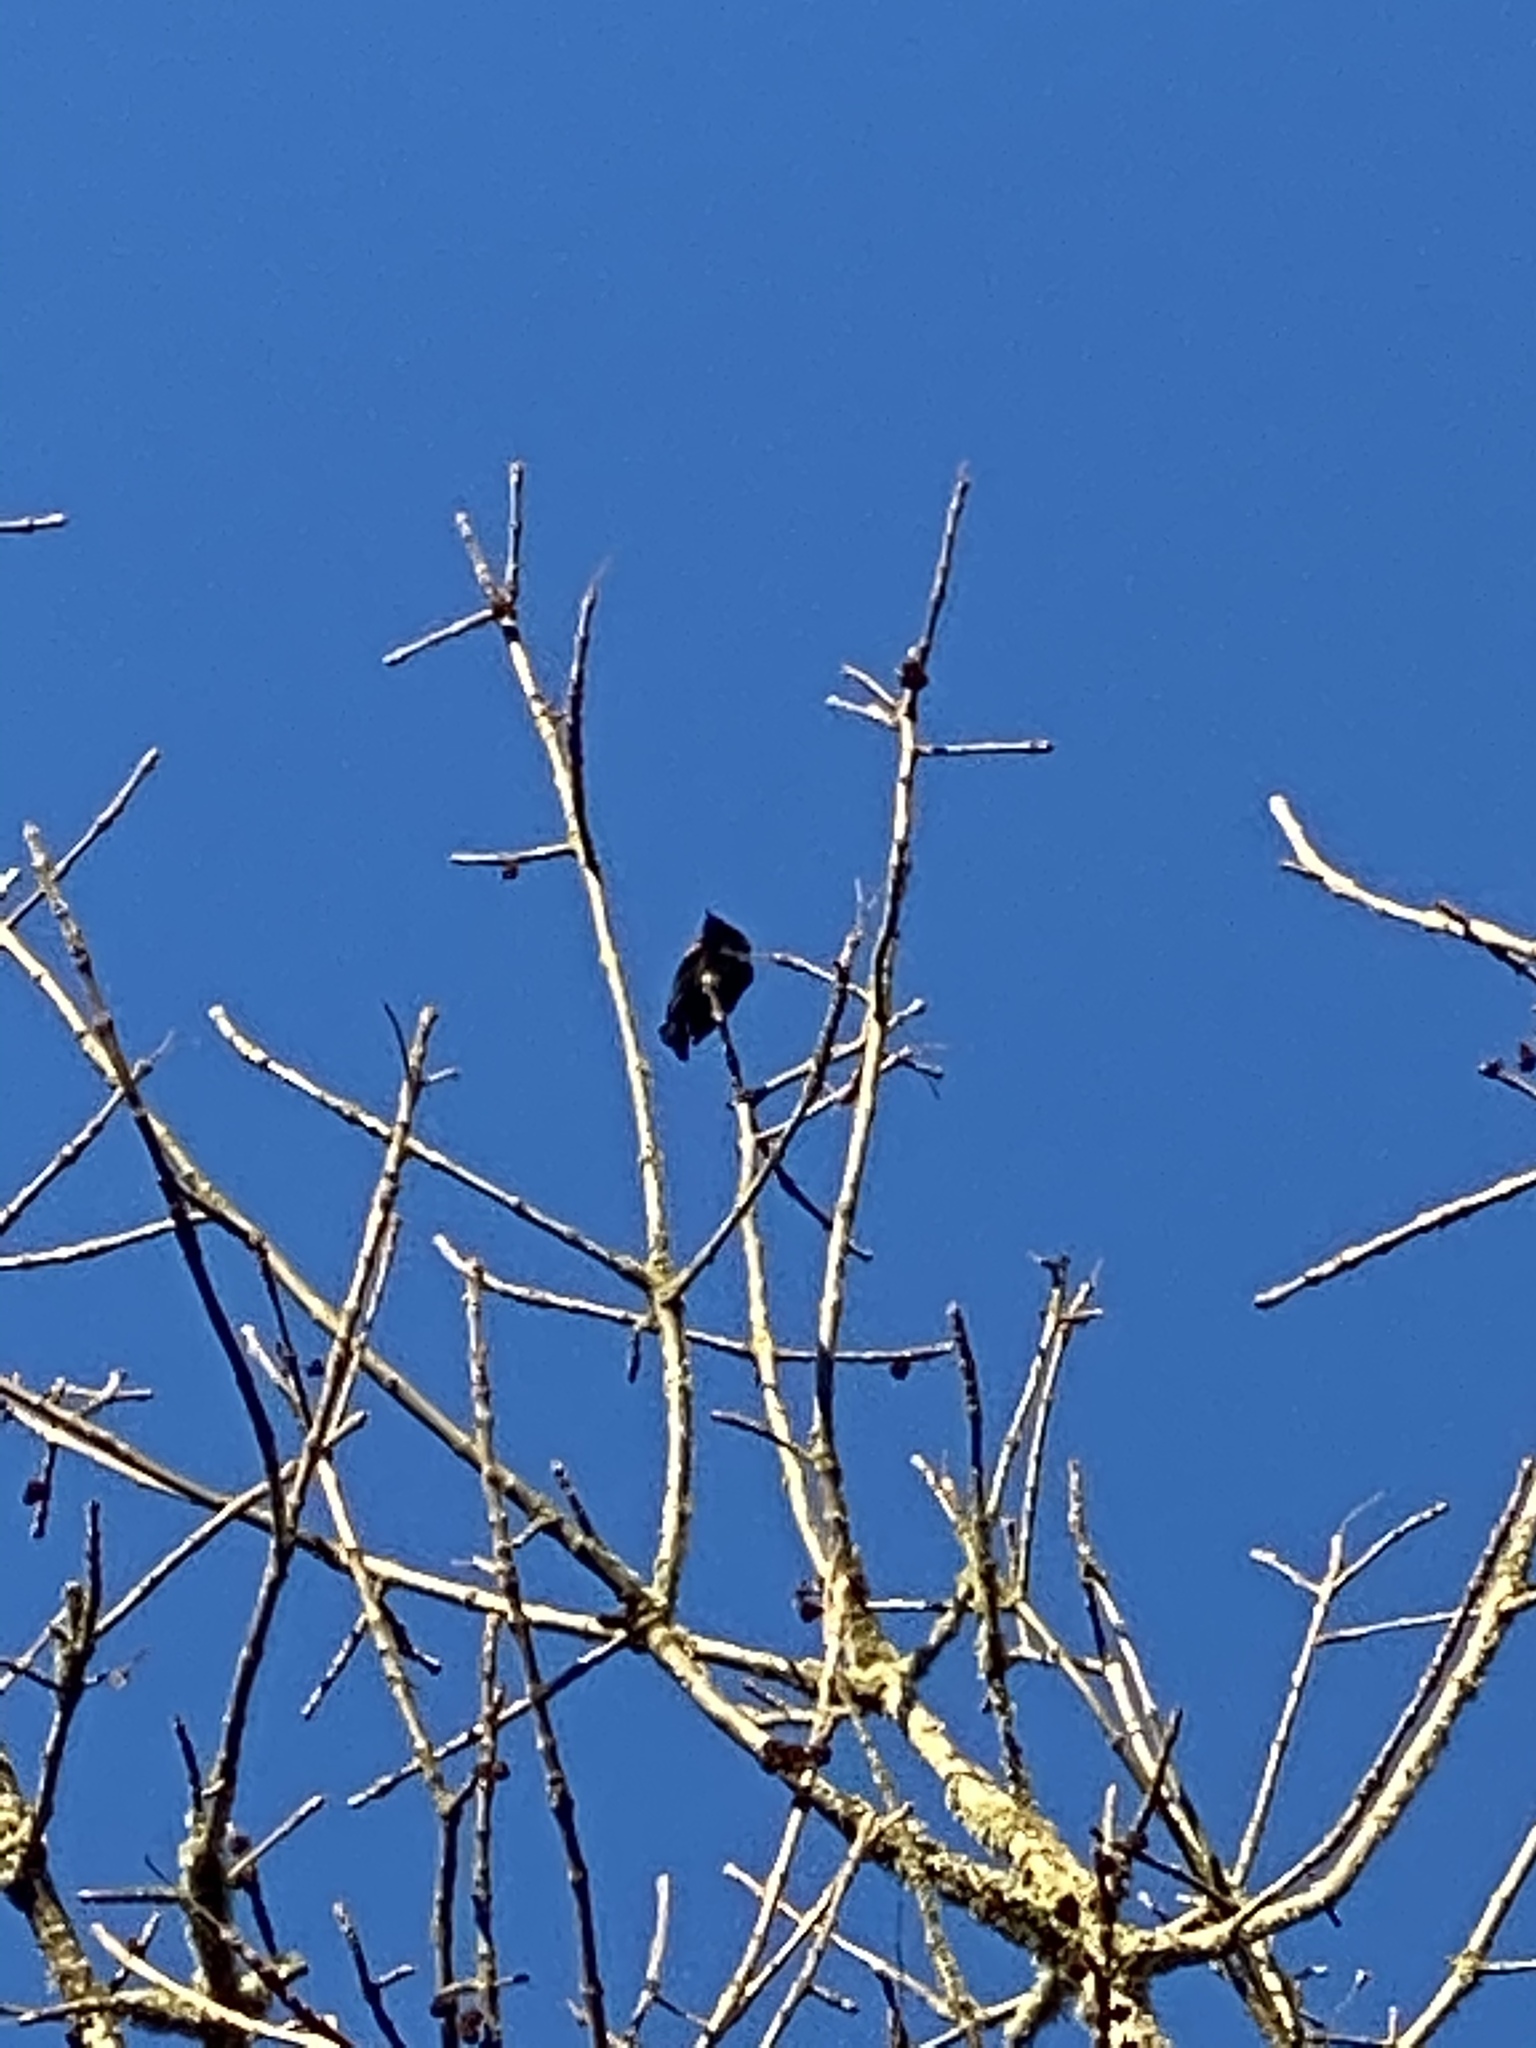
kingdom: Animalia
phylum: Chordata
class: Aves
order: Passeriformes
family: Icteridae
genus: Agelaius
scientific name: Agelaius phoeniceus
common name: Red-winged blackbird
